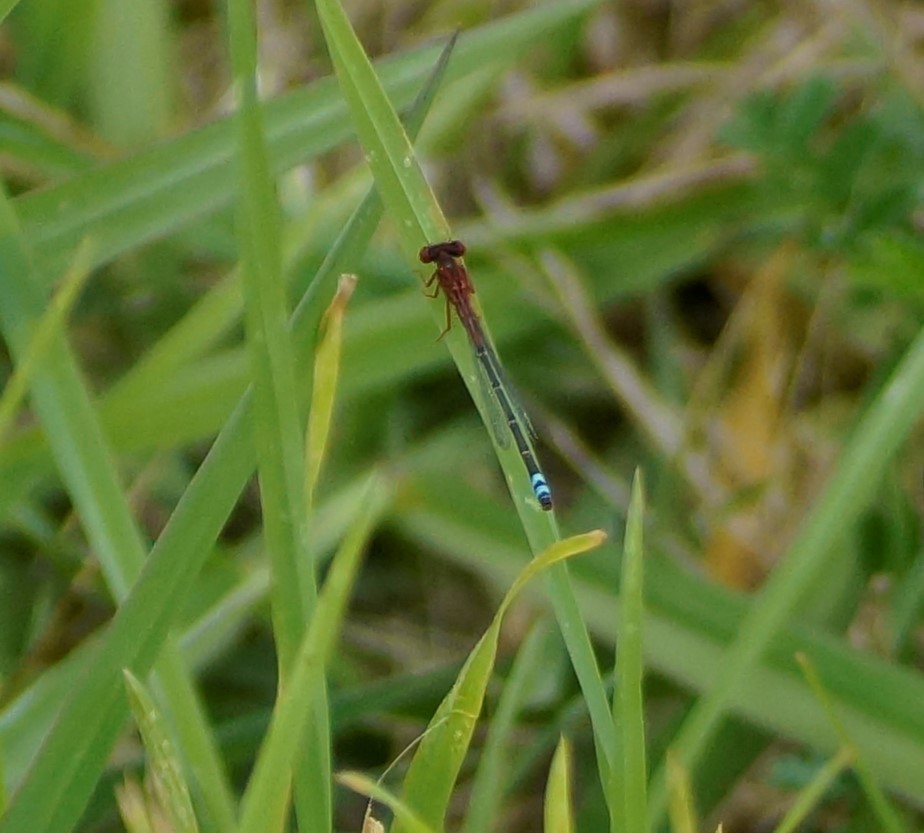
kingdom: Animalia
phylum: Arthropoda
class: Insecta
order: Odonata
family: Coenagrionidae
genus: Xanthagrion
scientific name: Xanthagrion erythroneurum
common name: Red and blue damsel
